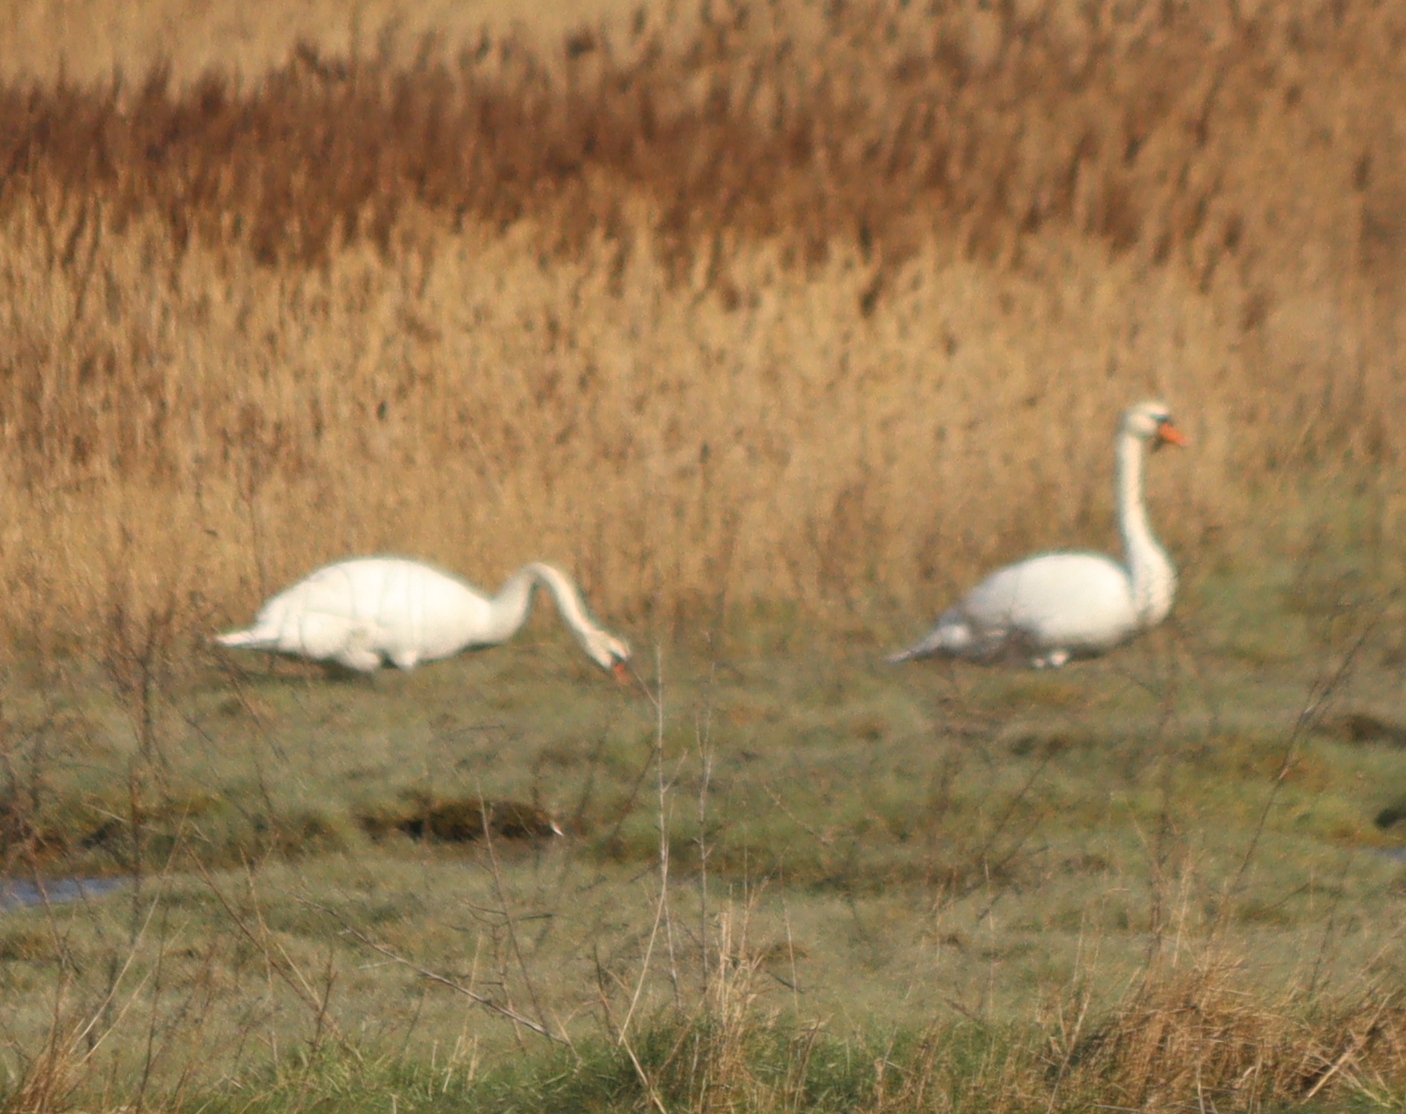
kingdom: Animalia
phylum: Chordata
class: Aves
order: Anseriformes
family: Anatidae
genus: Cygnus
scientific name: Cygnus olor
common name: Mute swan
